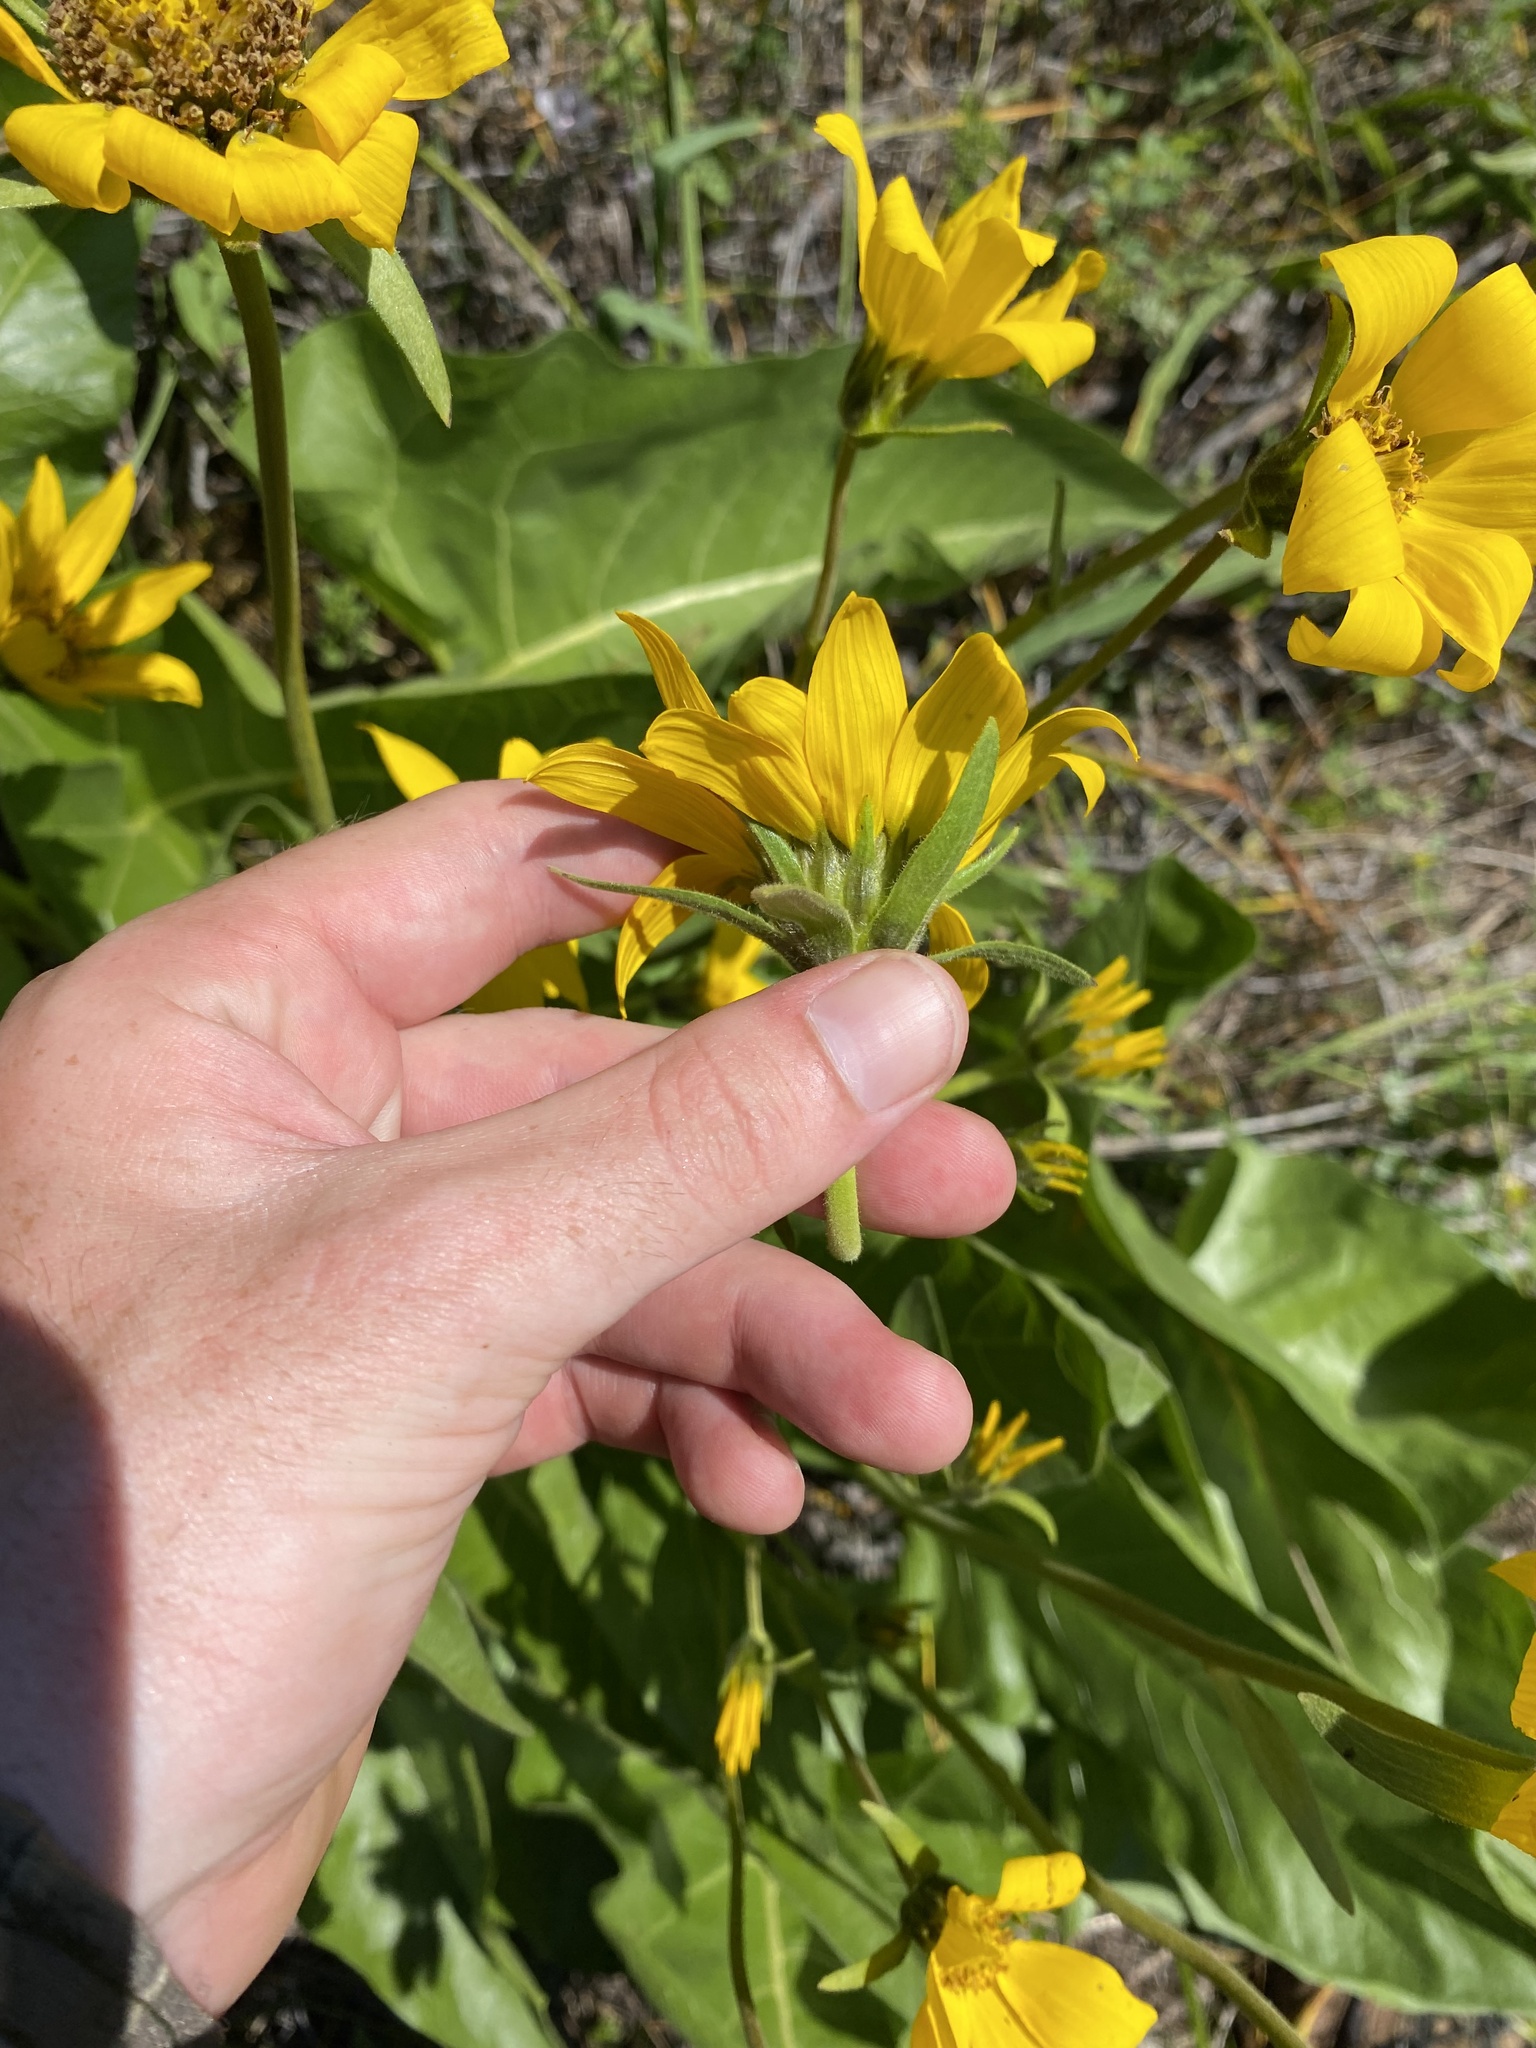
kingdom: Plantae
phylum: Tracheophyta
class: Magnoliopsida
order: Asterales
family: Asteraceae
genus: Balsamorhiza
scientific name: Balsamorhiza deltoidea
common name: Deltoid balsamroot
